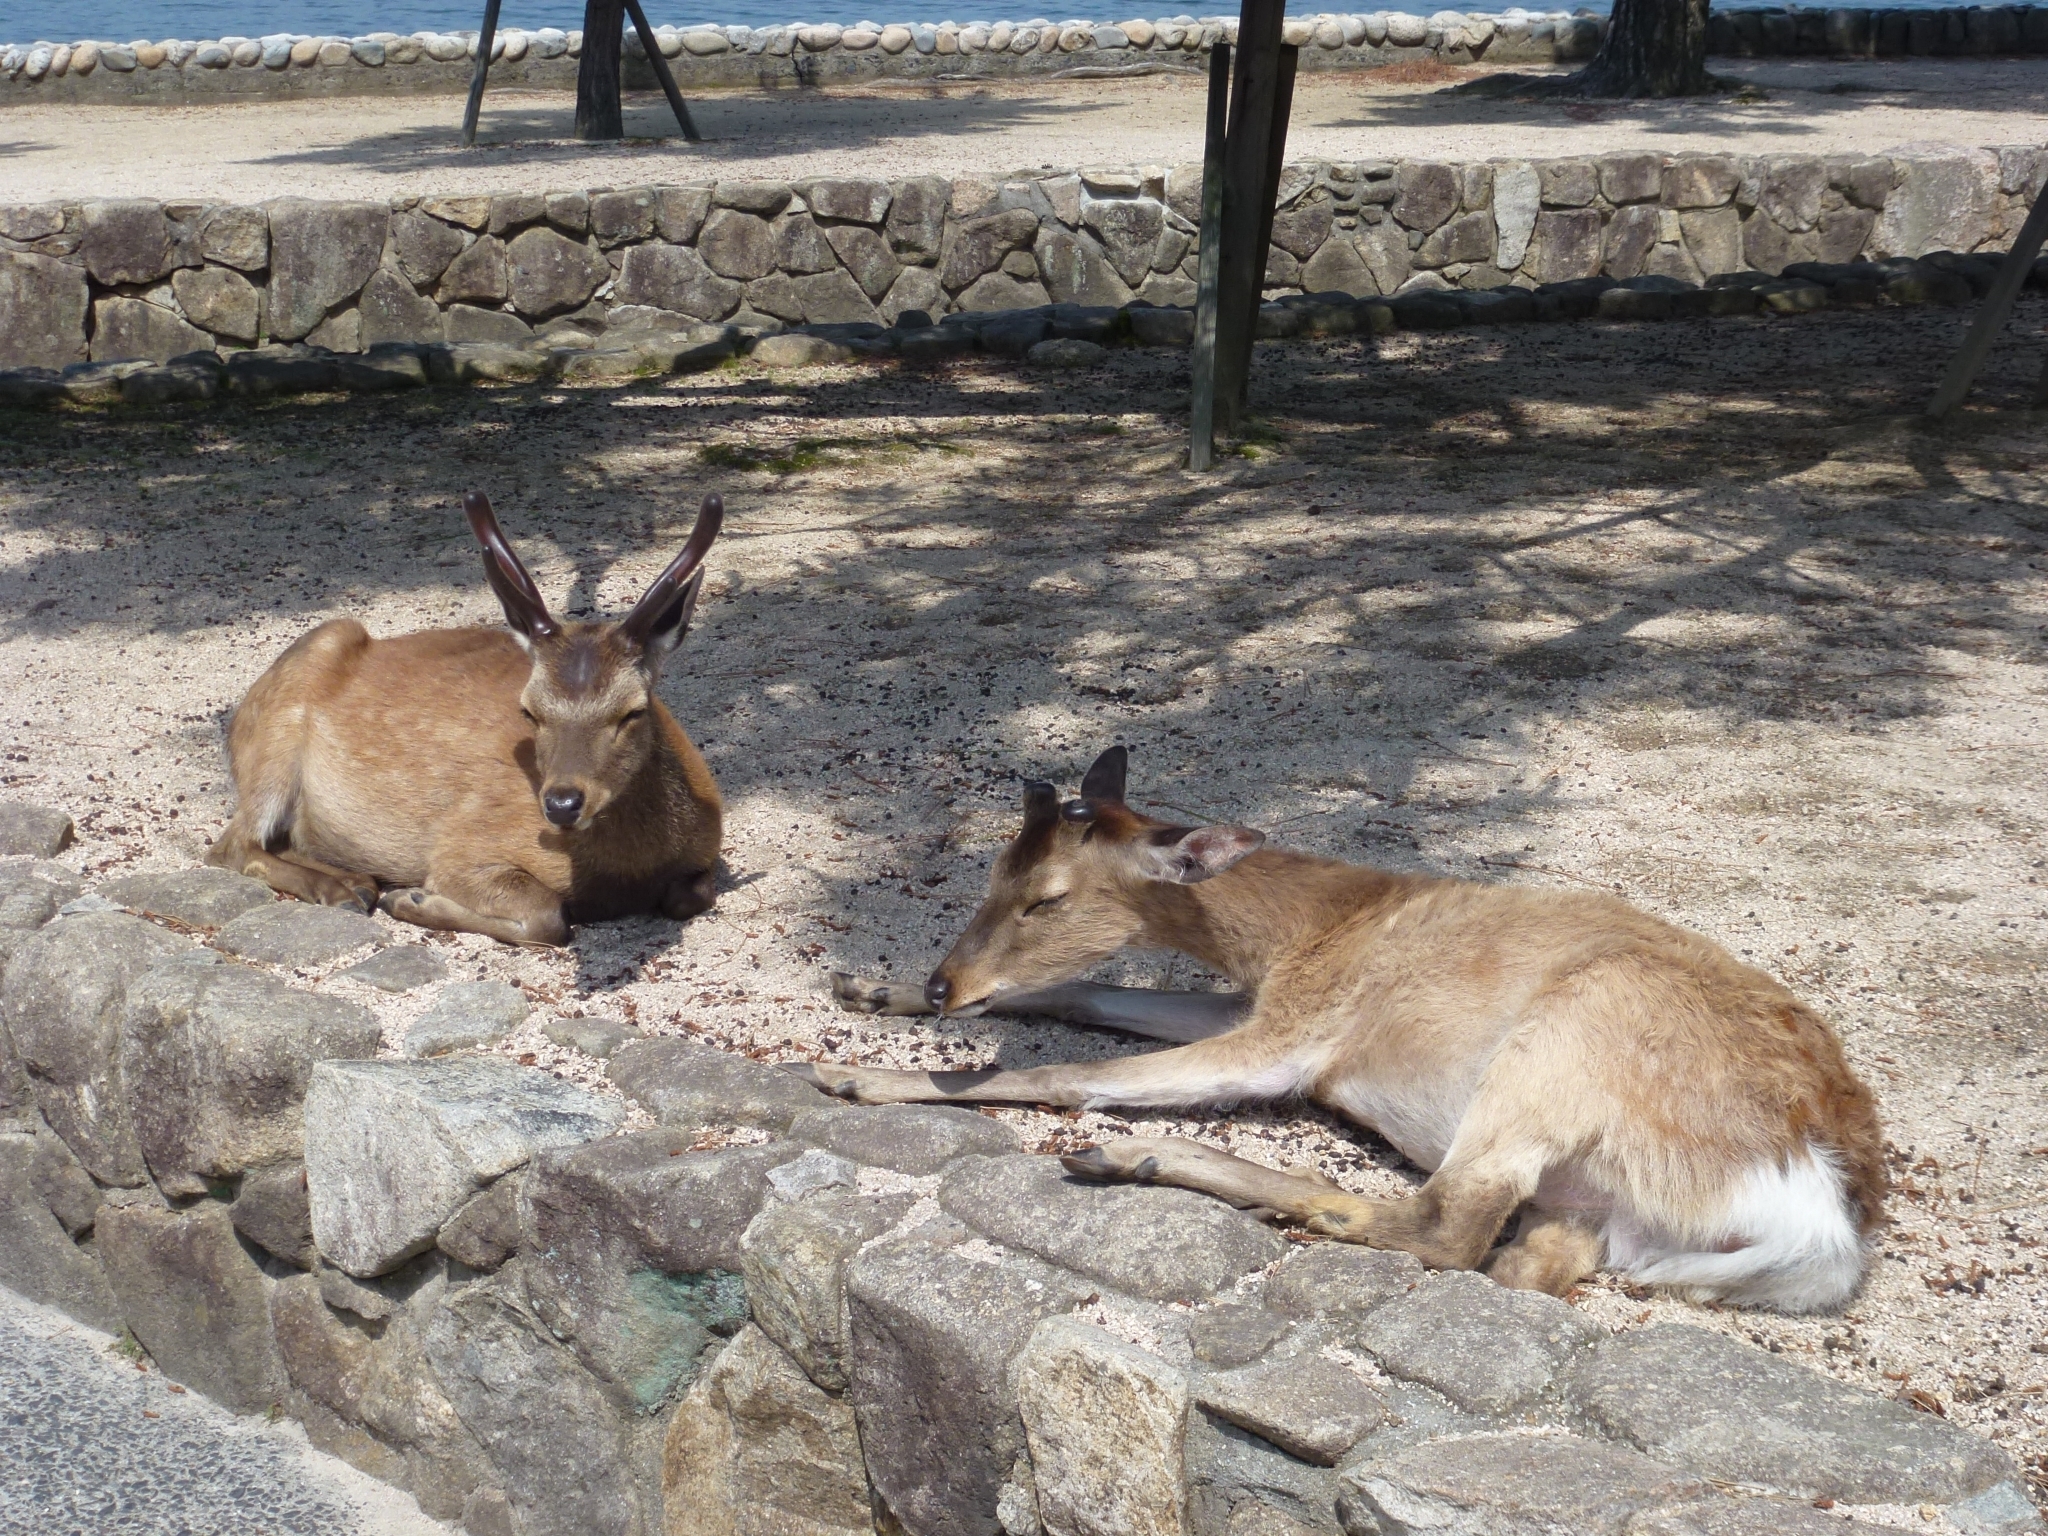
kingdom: Animalia
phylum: Chordata
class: Mammalia
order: Artiodactyla
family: Cervidae
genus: Cervus
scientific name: Cervus nippon
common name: Sika deer
